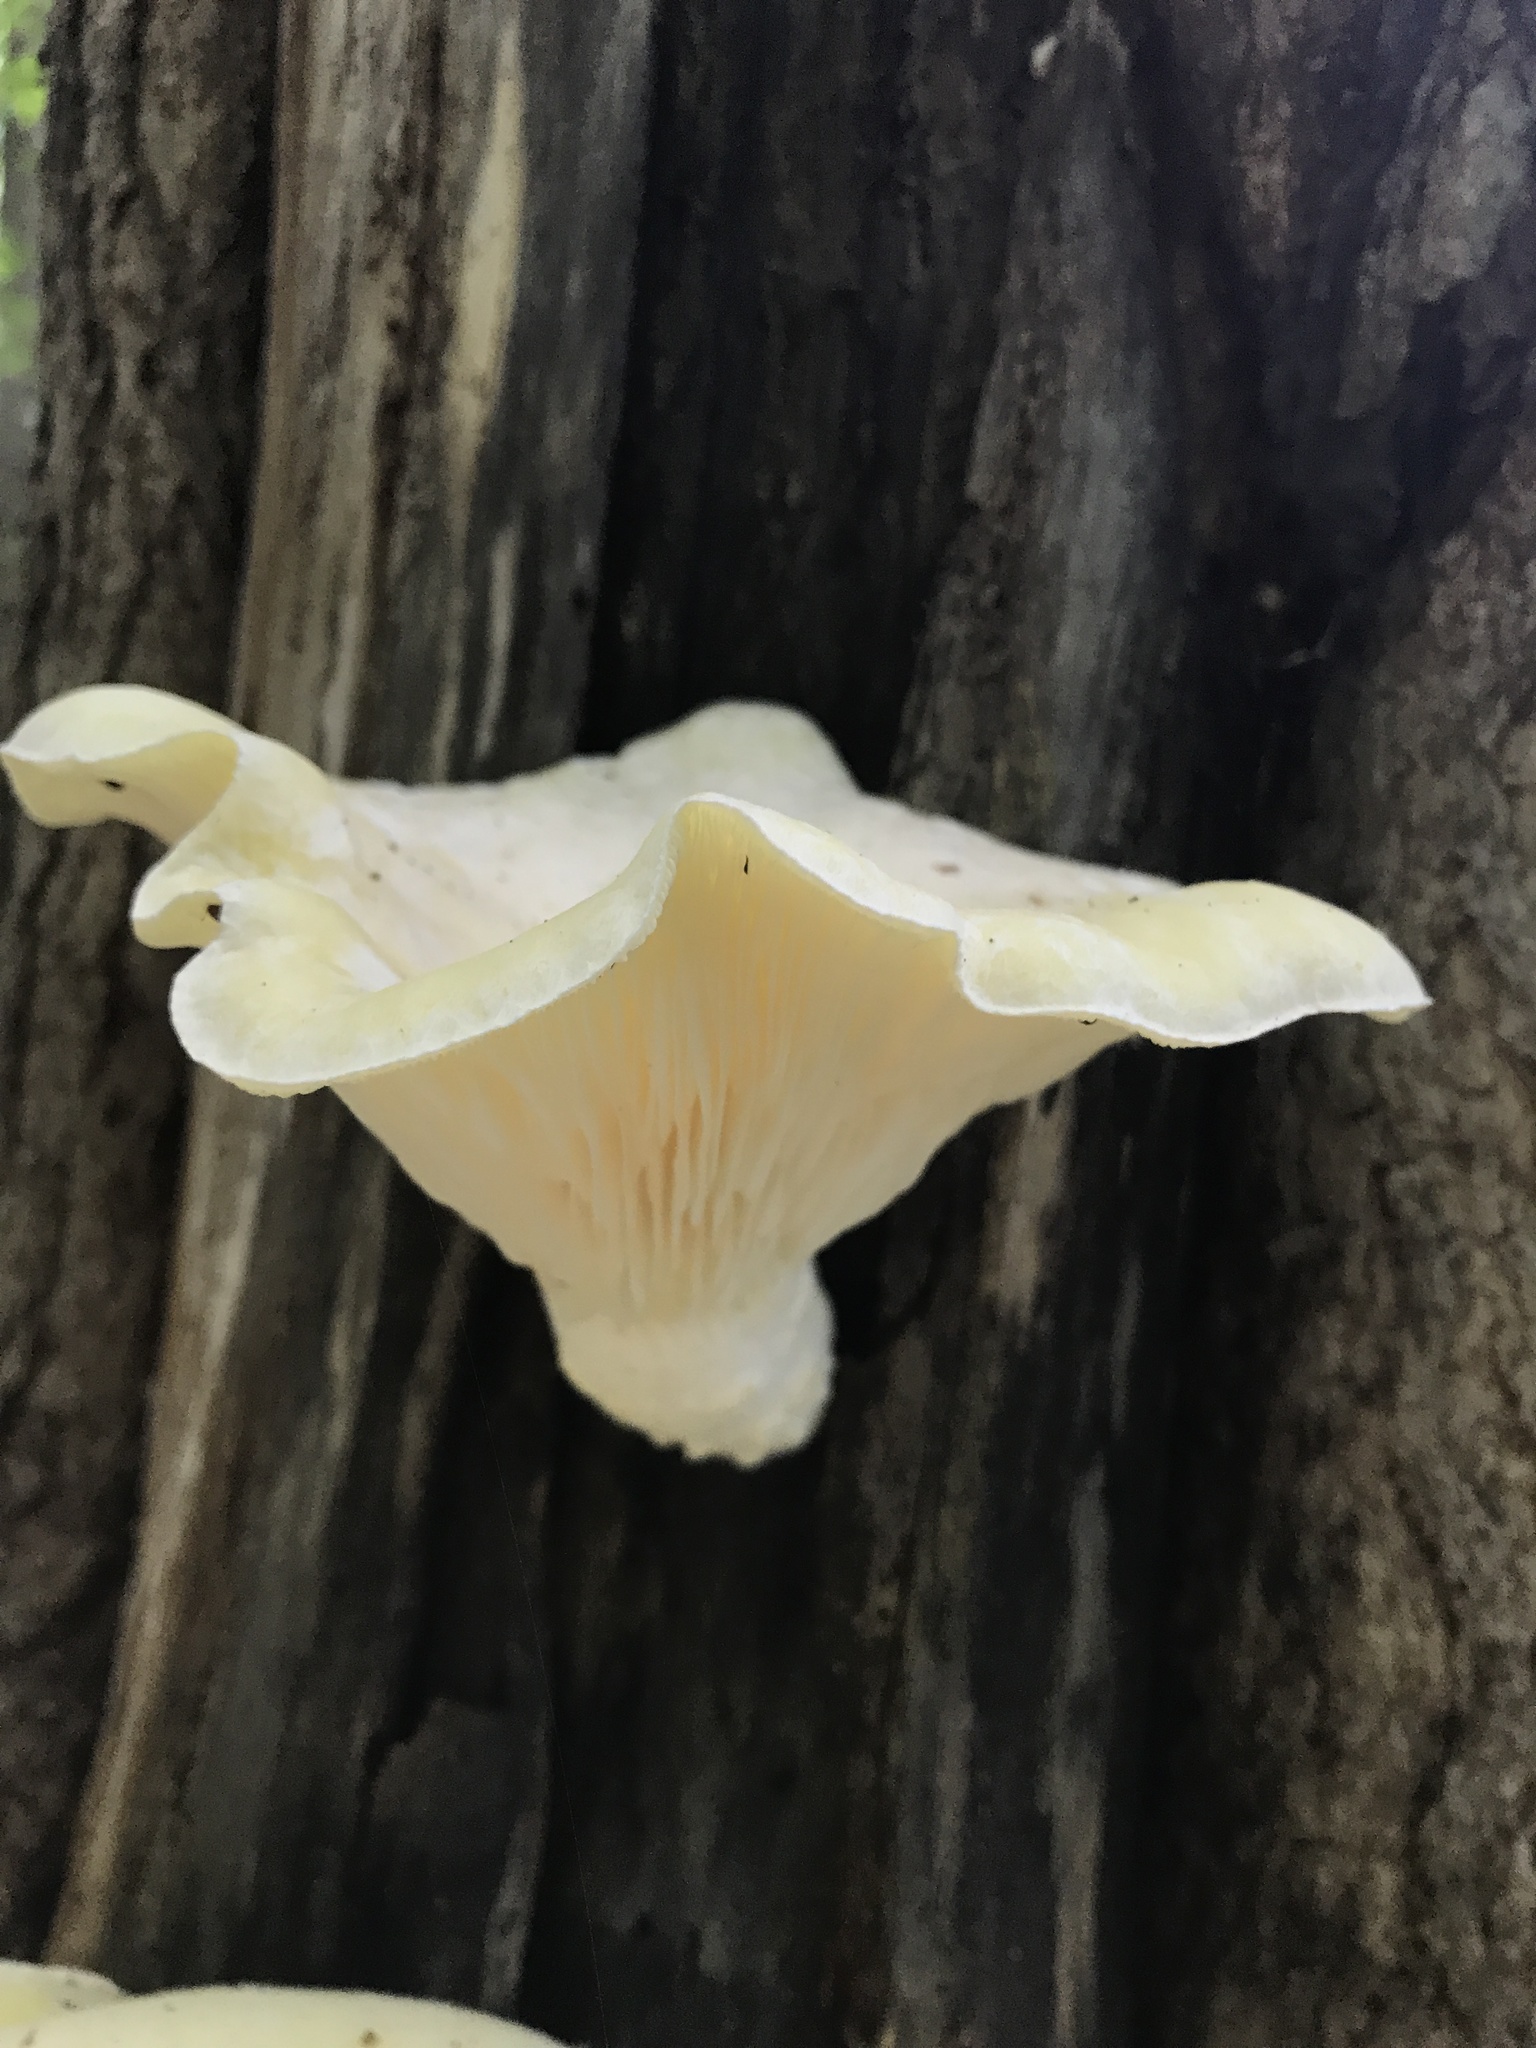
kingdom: Fungi
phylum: Basidiomycota
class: Agaricomycetes
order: Polyporales
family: Polyporaceae
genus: Lentinus
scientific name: Lentinus levis
